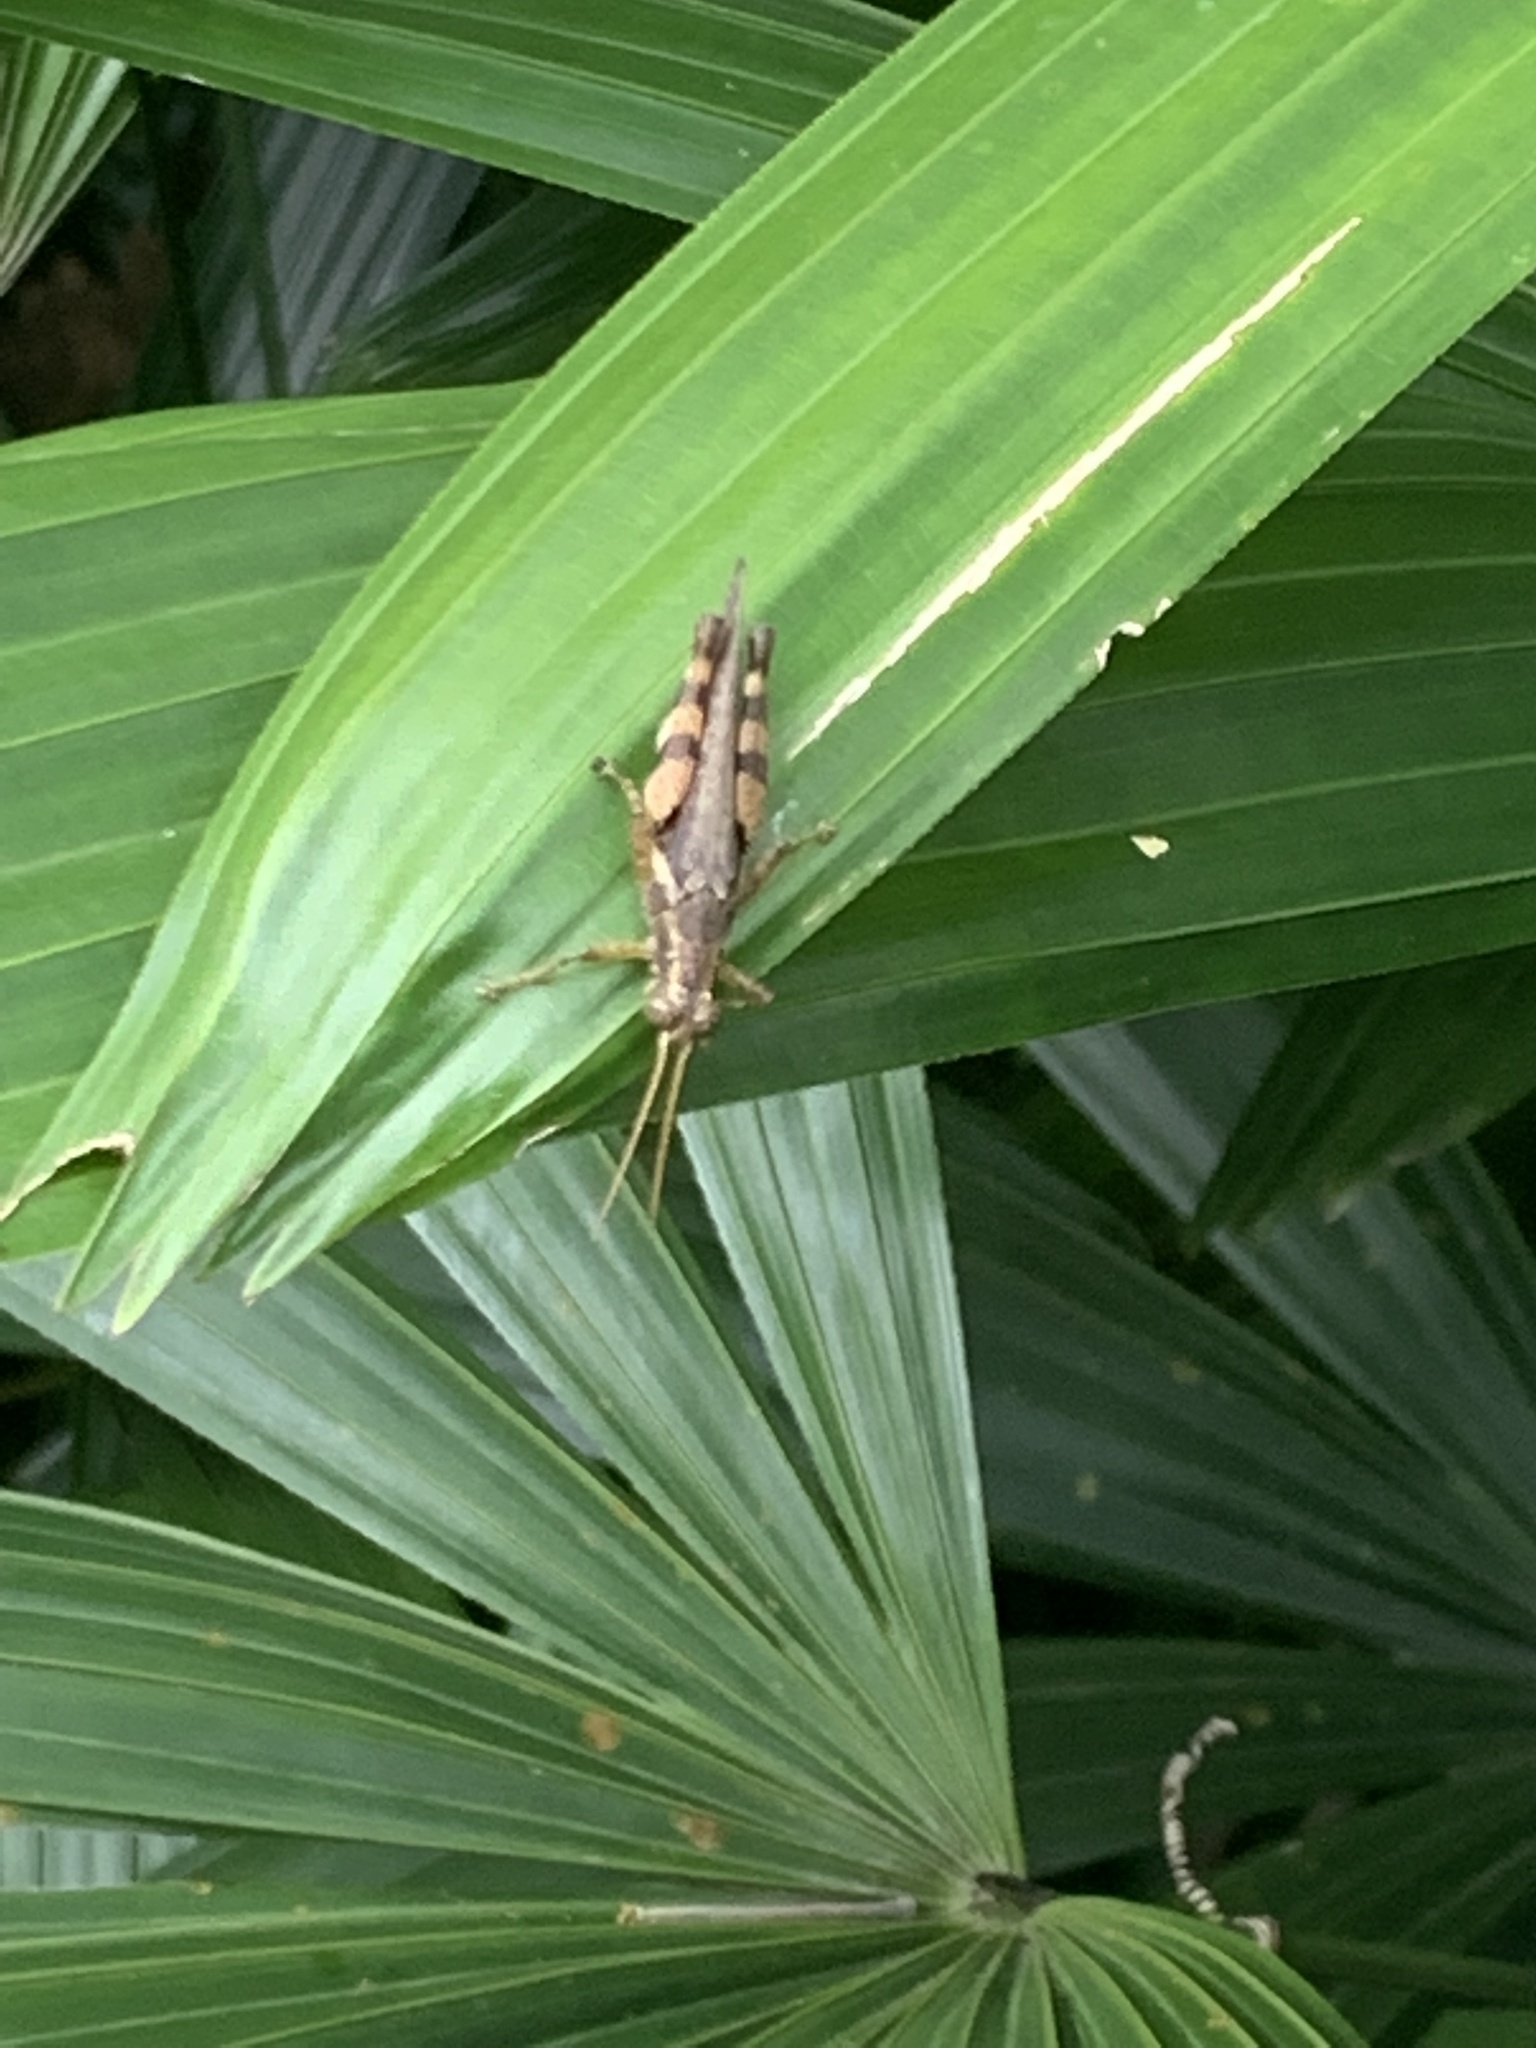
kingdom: Animalia
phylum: Arthropoda
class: Insecta
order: Orthoptera
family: Acrididae
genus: Xenocatantops
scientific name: Xenocatantops humile
